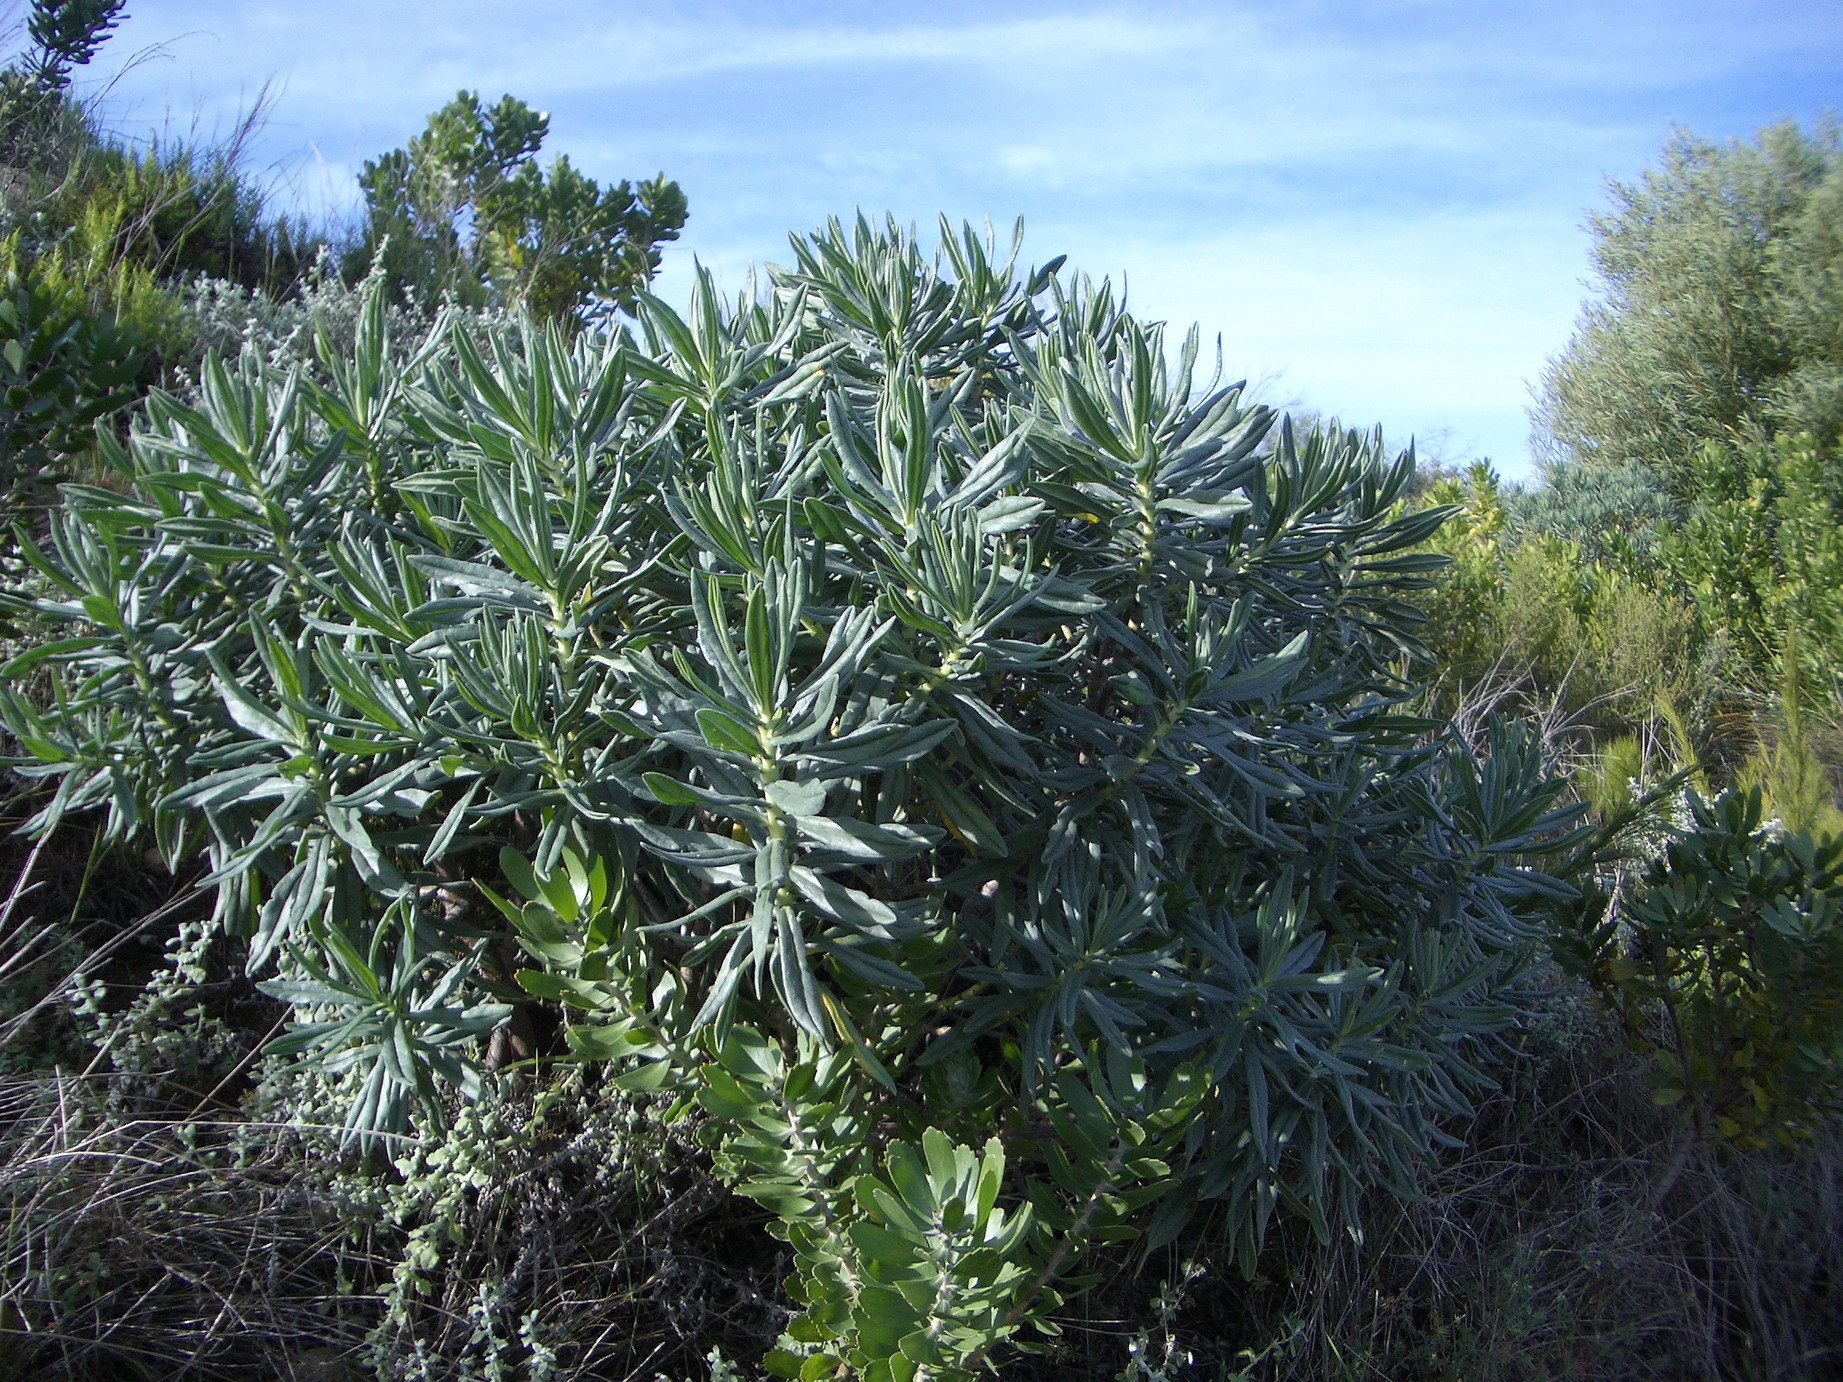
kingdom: Plantae
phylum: Tracheophyta
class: Magnoliopsida
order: Boraginales
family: Boraginaceae
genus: Lobostemon
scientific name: Lobostemon belliformis
